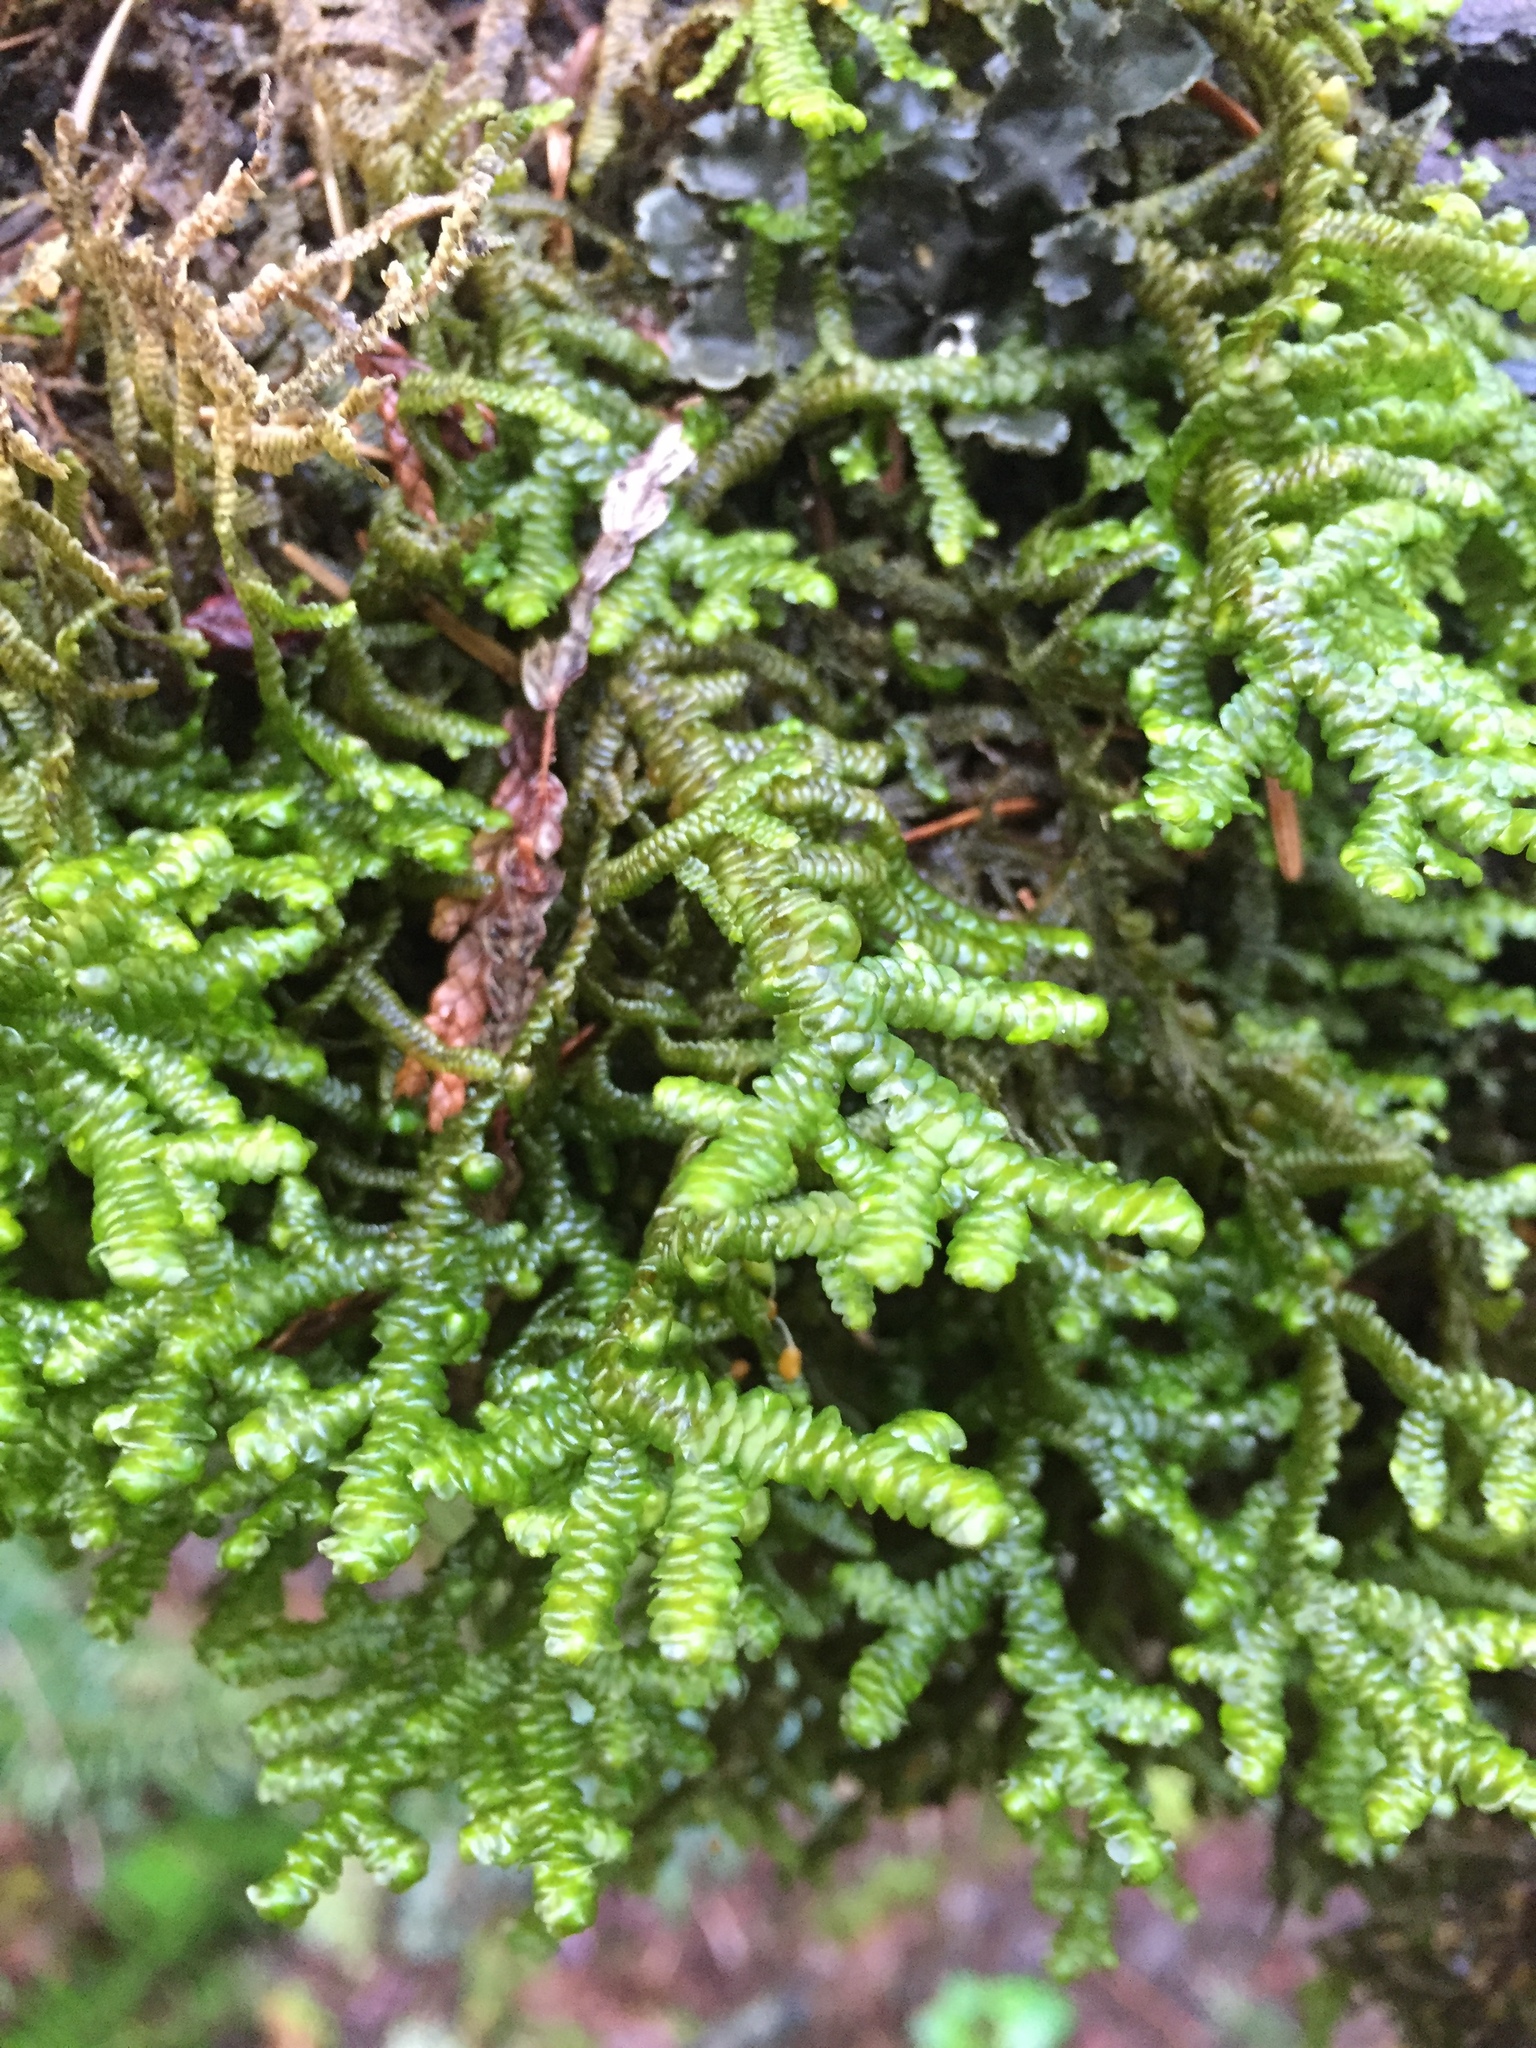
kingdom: Plantae
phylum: Marchantiophyta
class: Jungermanniopsida
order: Porellales
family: Porellaceae
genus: Porella
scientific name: Porella navicularis
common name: Tree ruffle liverwort
